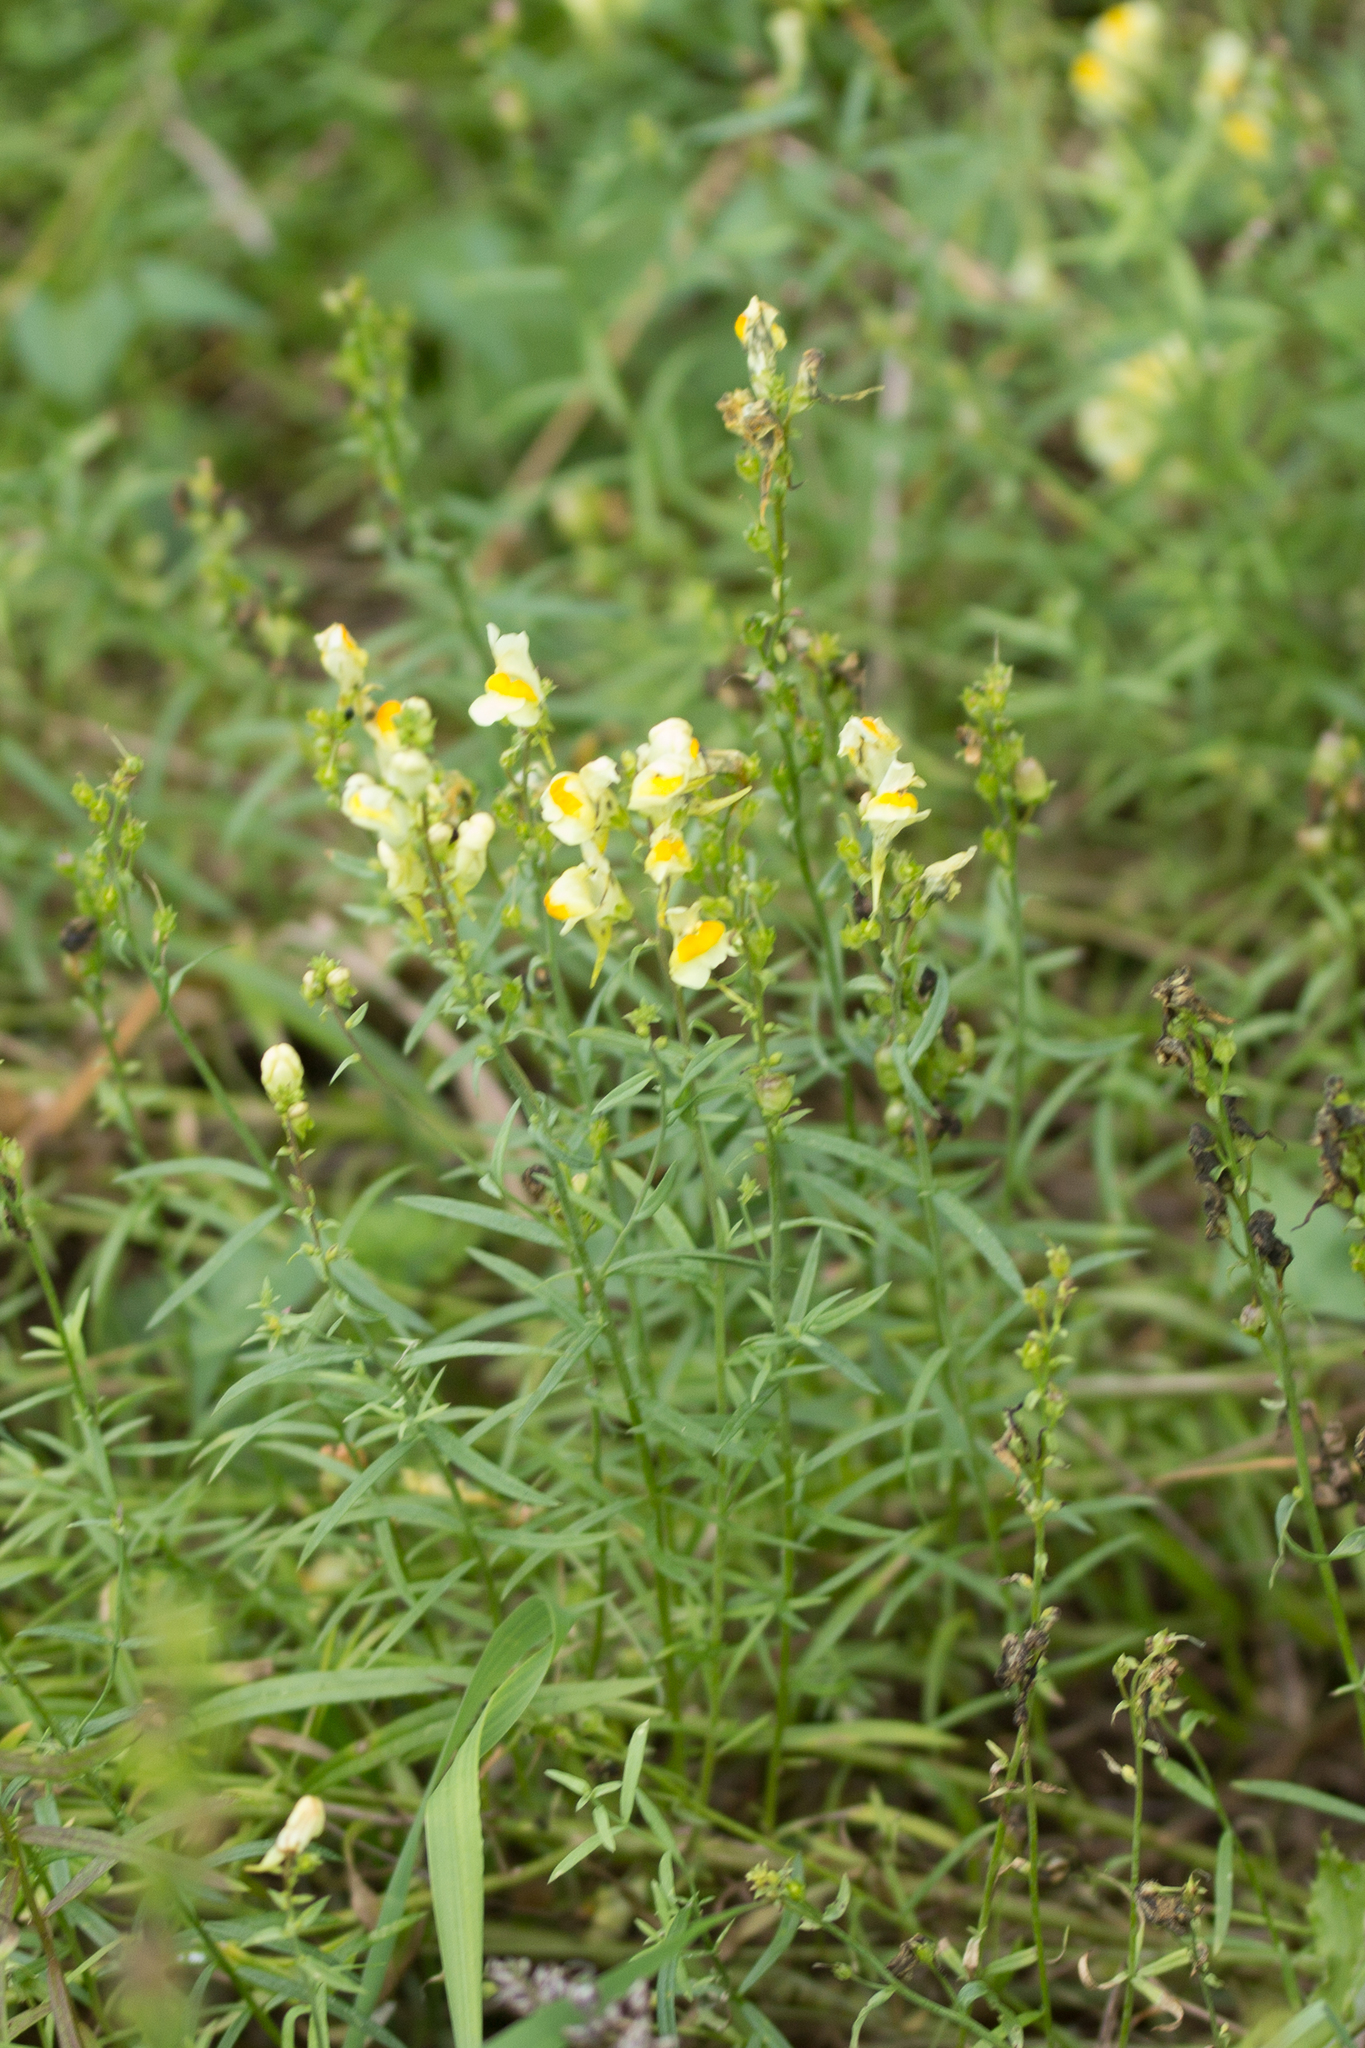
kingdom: Plantae
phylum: Tracheophyta
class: Magnoliopsida
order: Lamiales
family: Plantaginaceae
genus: Linaria
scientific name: Linaria vulgaris
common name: Butter and eggs
